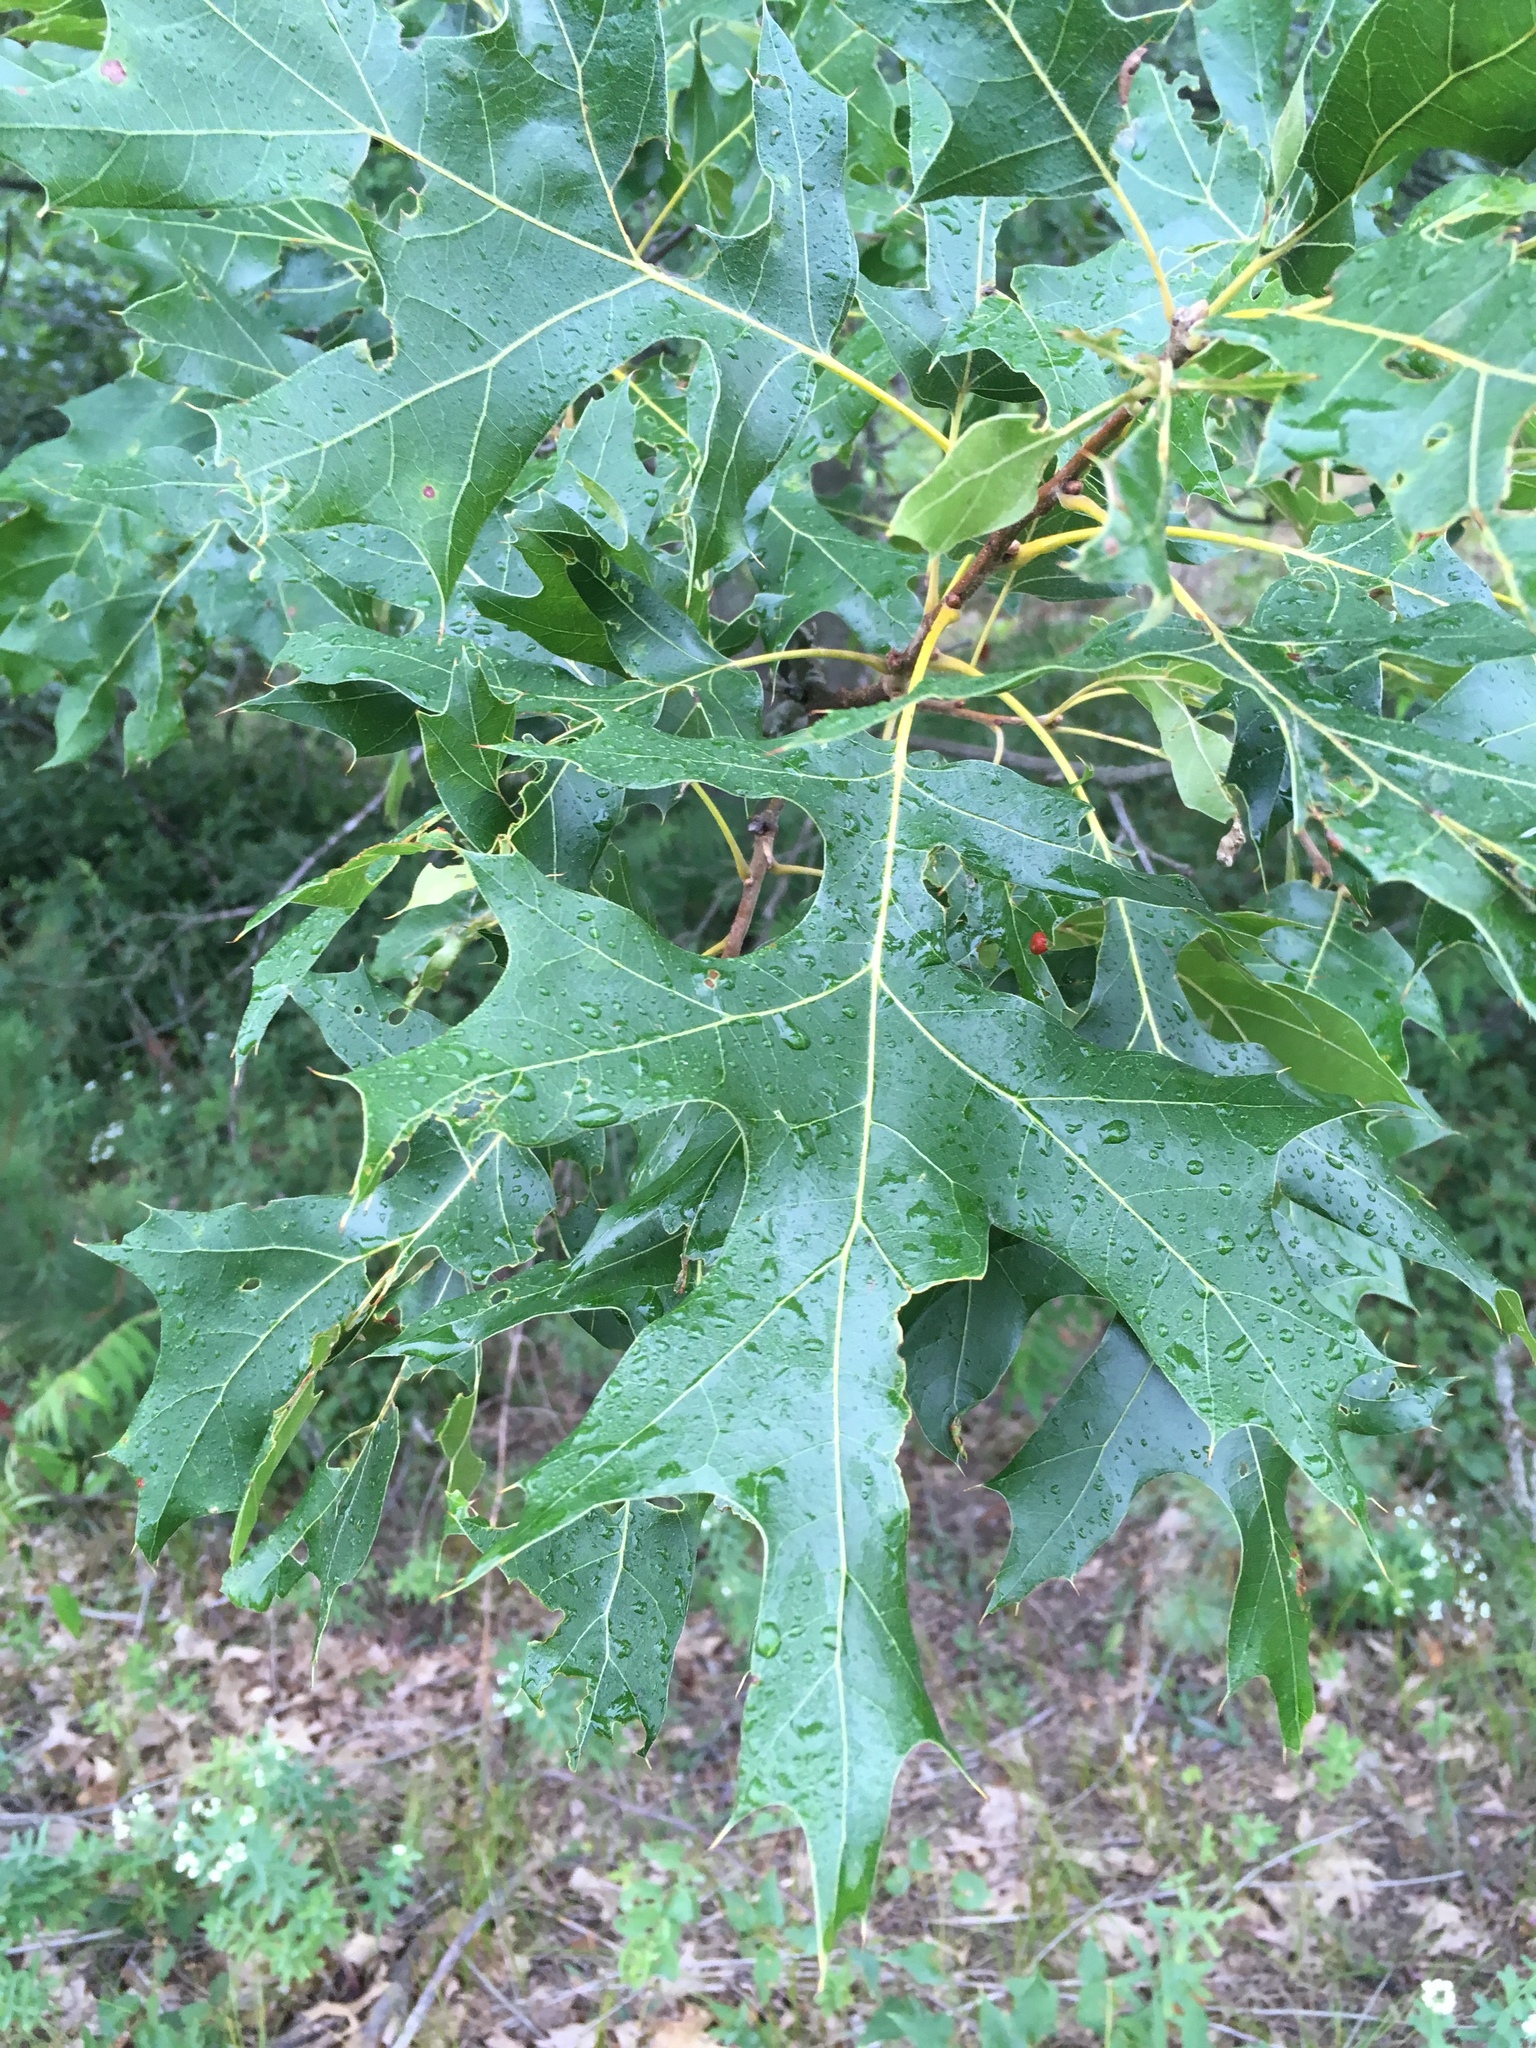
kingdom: Plantae
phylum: Tracheophyta
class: Magnoliopsida
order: Fagales
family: Fagaceae
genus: Quercus
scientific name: Quercus velutina
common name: Black oak
